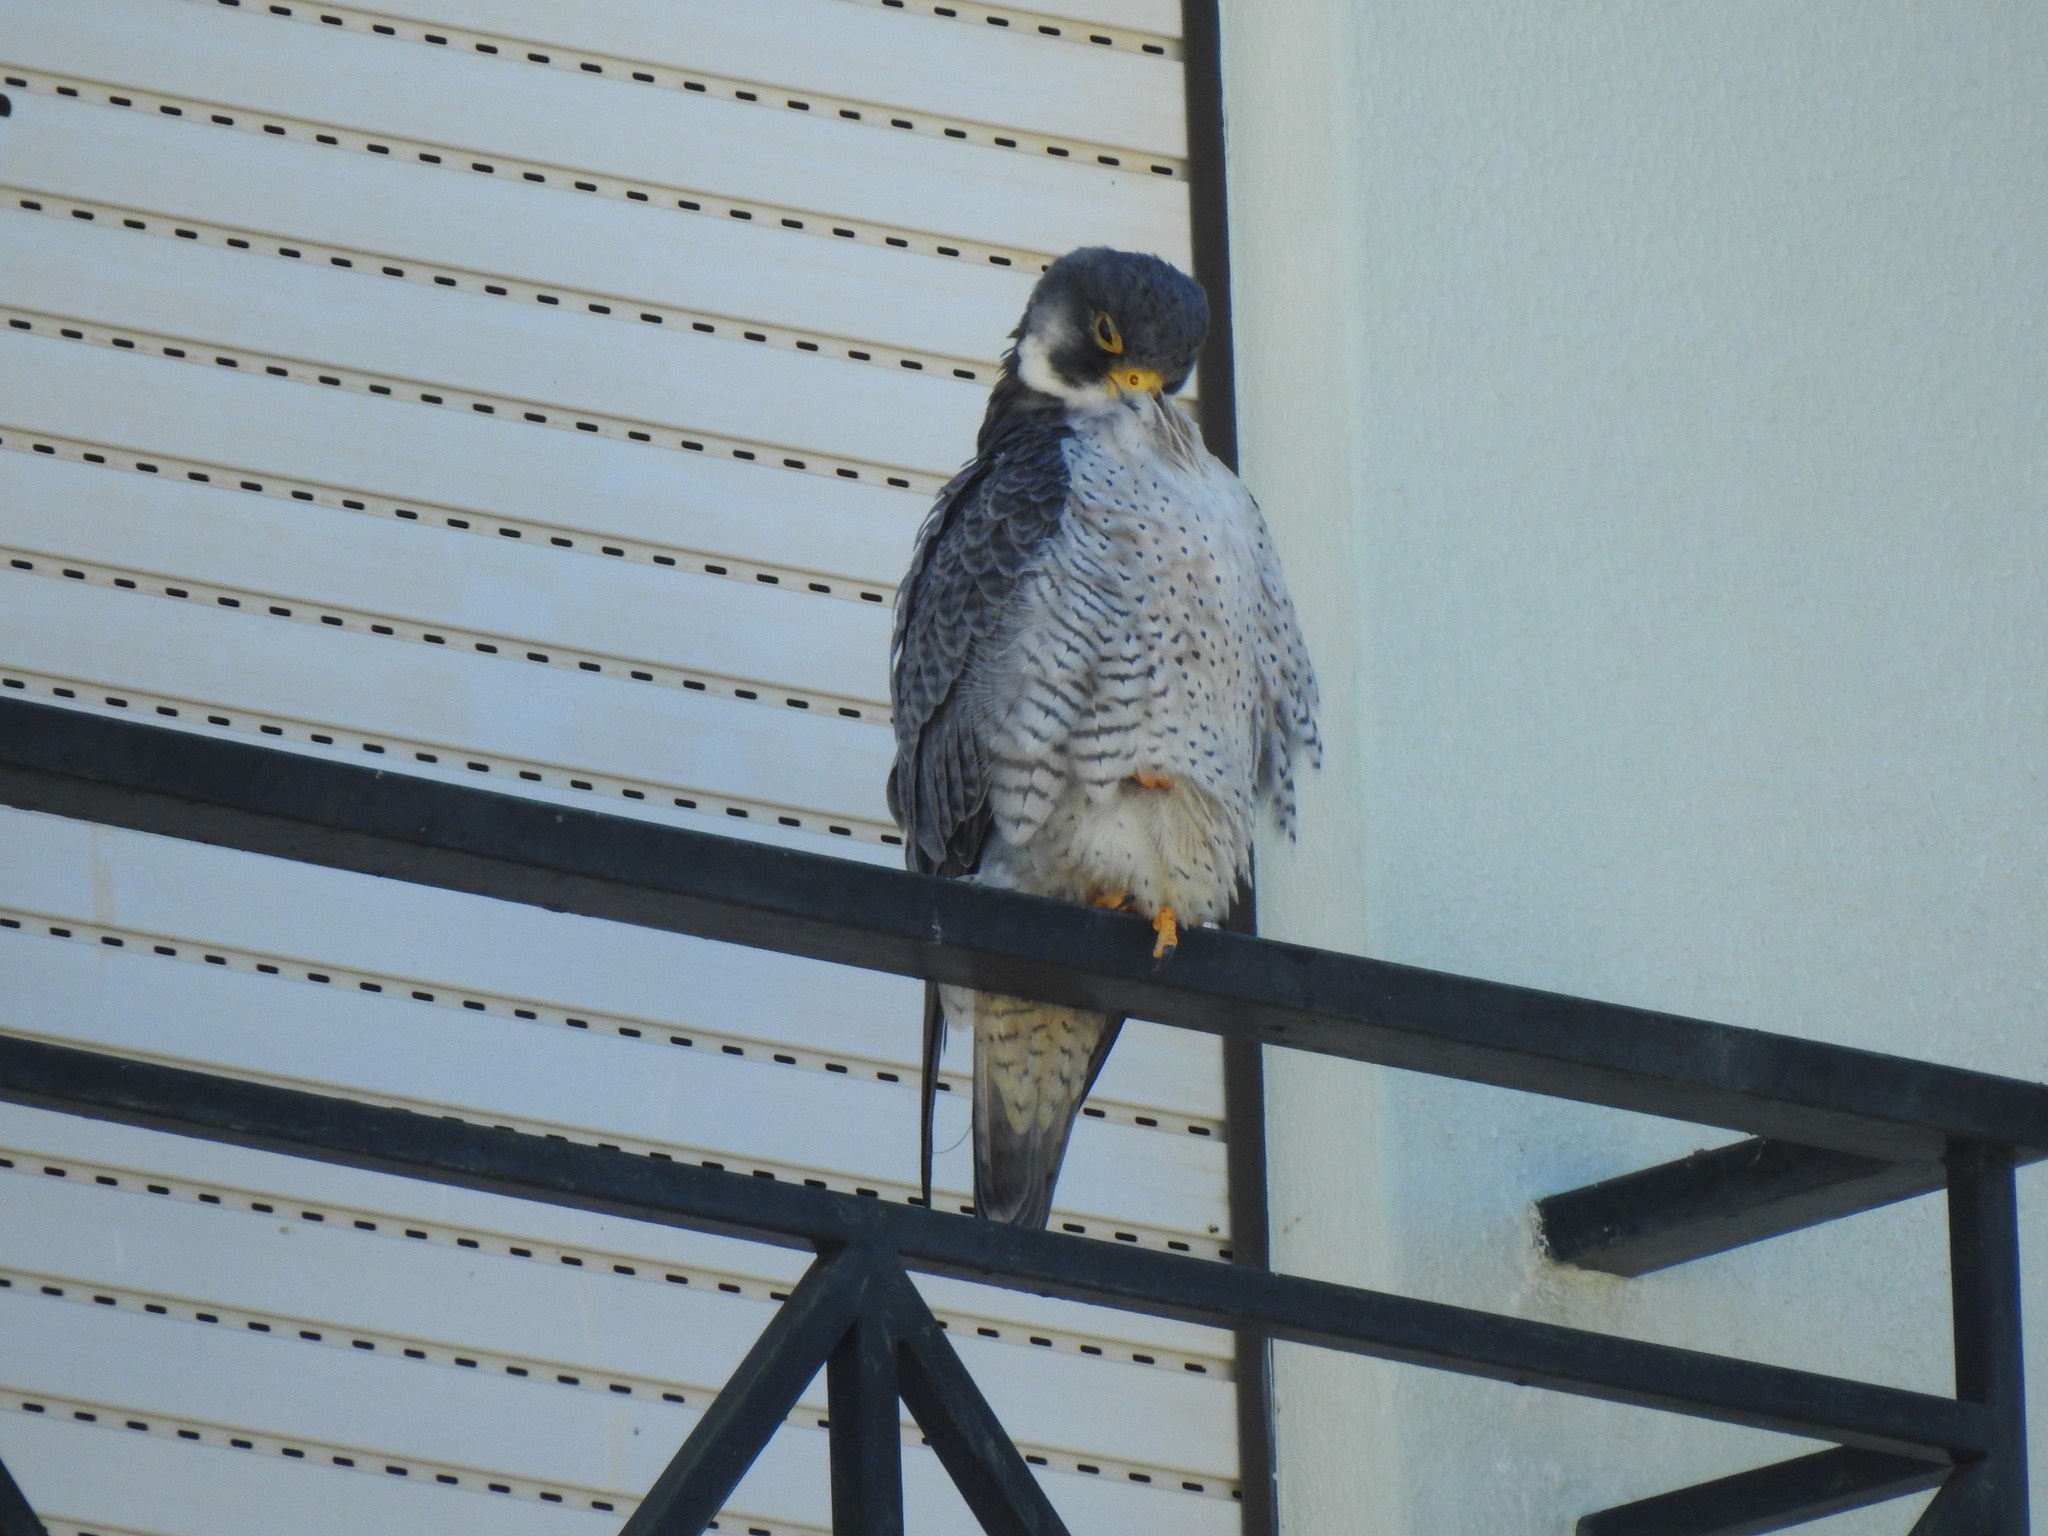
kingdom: Animalia
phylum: Chordata
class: Aves
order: Falconiformes
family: Falconidae
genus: Falco
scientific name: Falco peregrinus
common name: Peregrine falcon
